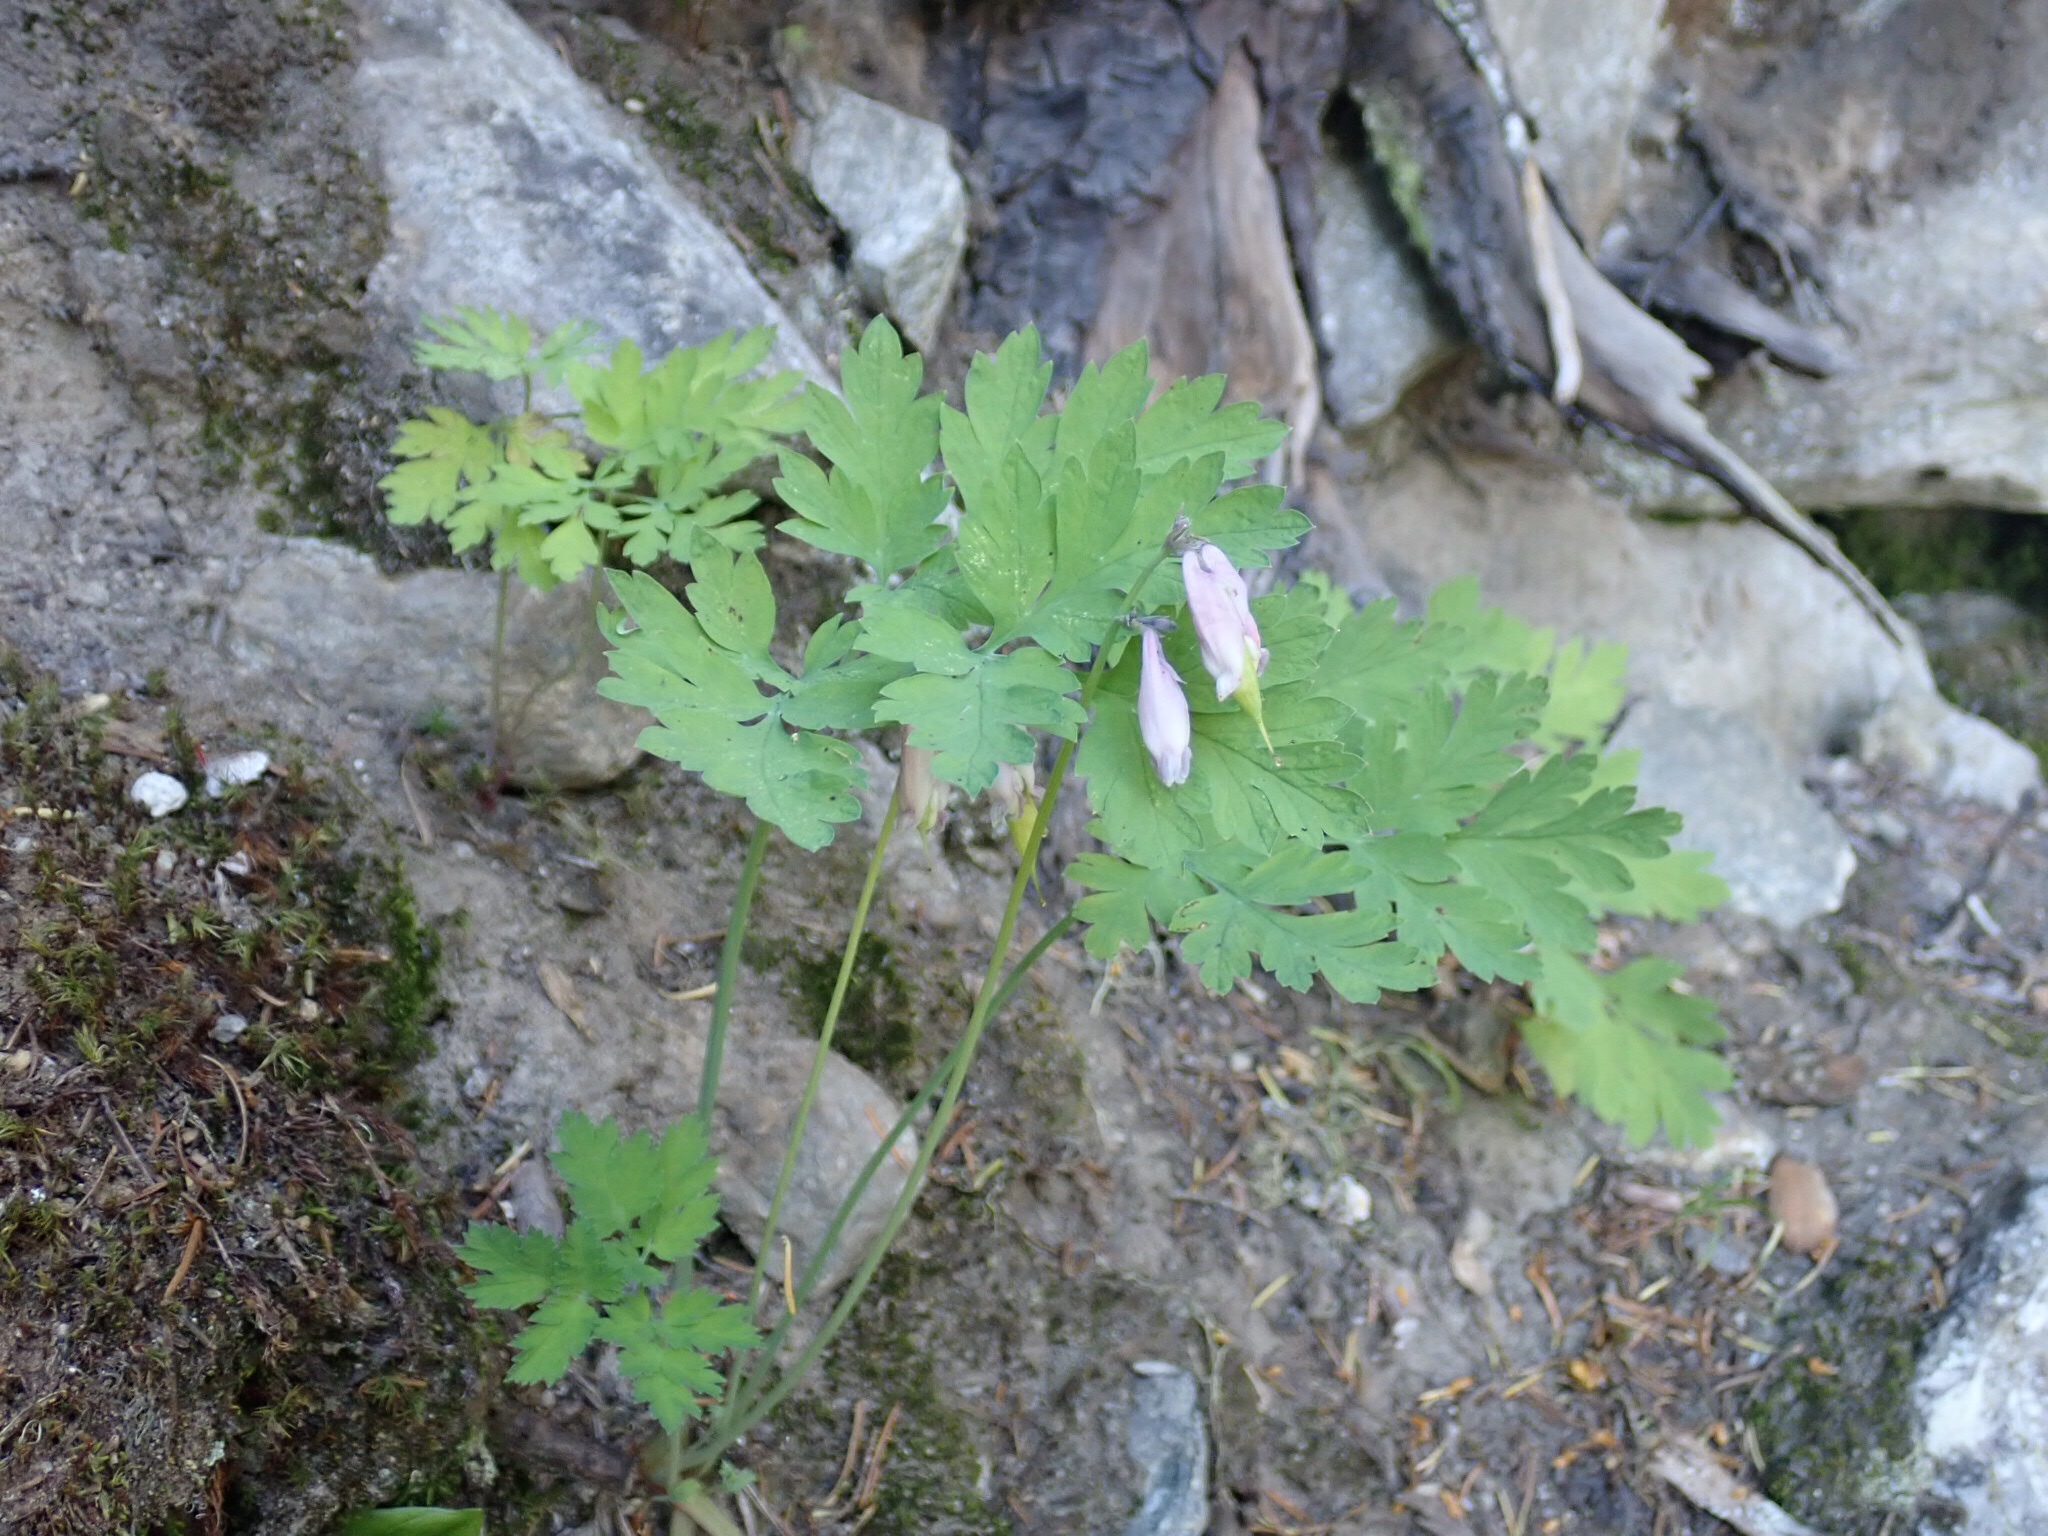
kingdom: Plantae
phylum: Tracheophyta
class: Magnoliopsida
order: Ranunculales
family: Papaveraceae
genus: Dicentra
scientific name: Dicentra formosa
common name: Bleeding-heart
